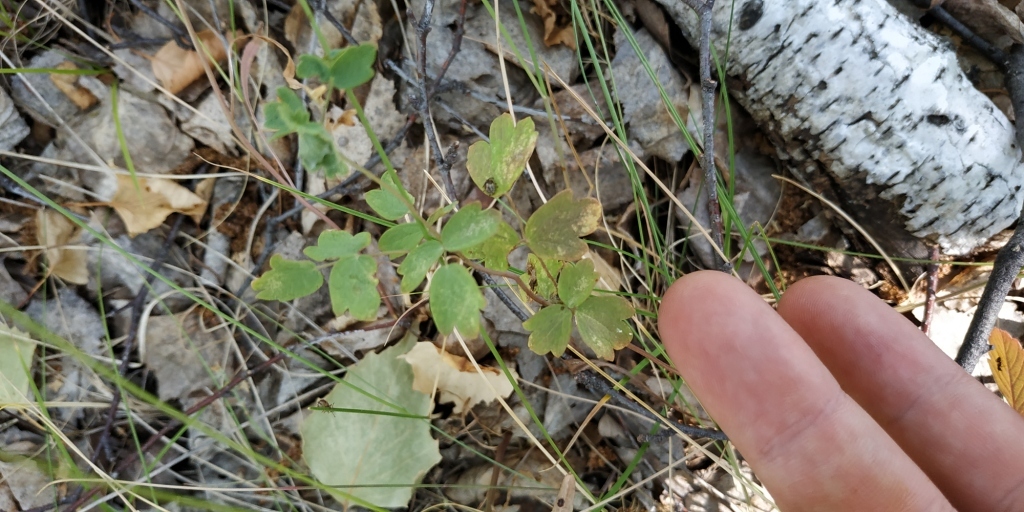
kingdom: Plantae
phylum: Tracheophyta
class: Magnoliopsida
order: Ranunculales
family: Ranunculaceae
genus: Thalictrum
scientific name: Thalictrum minus
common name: Lesser meadow-rue
